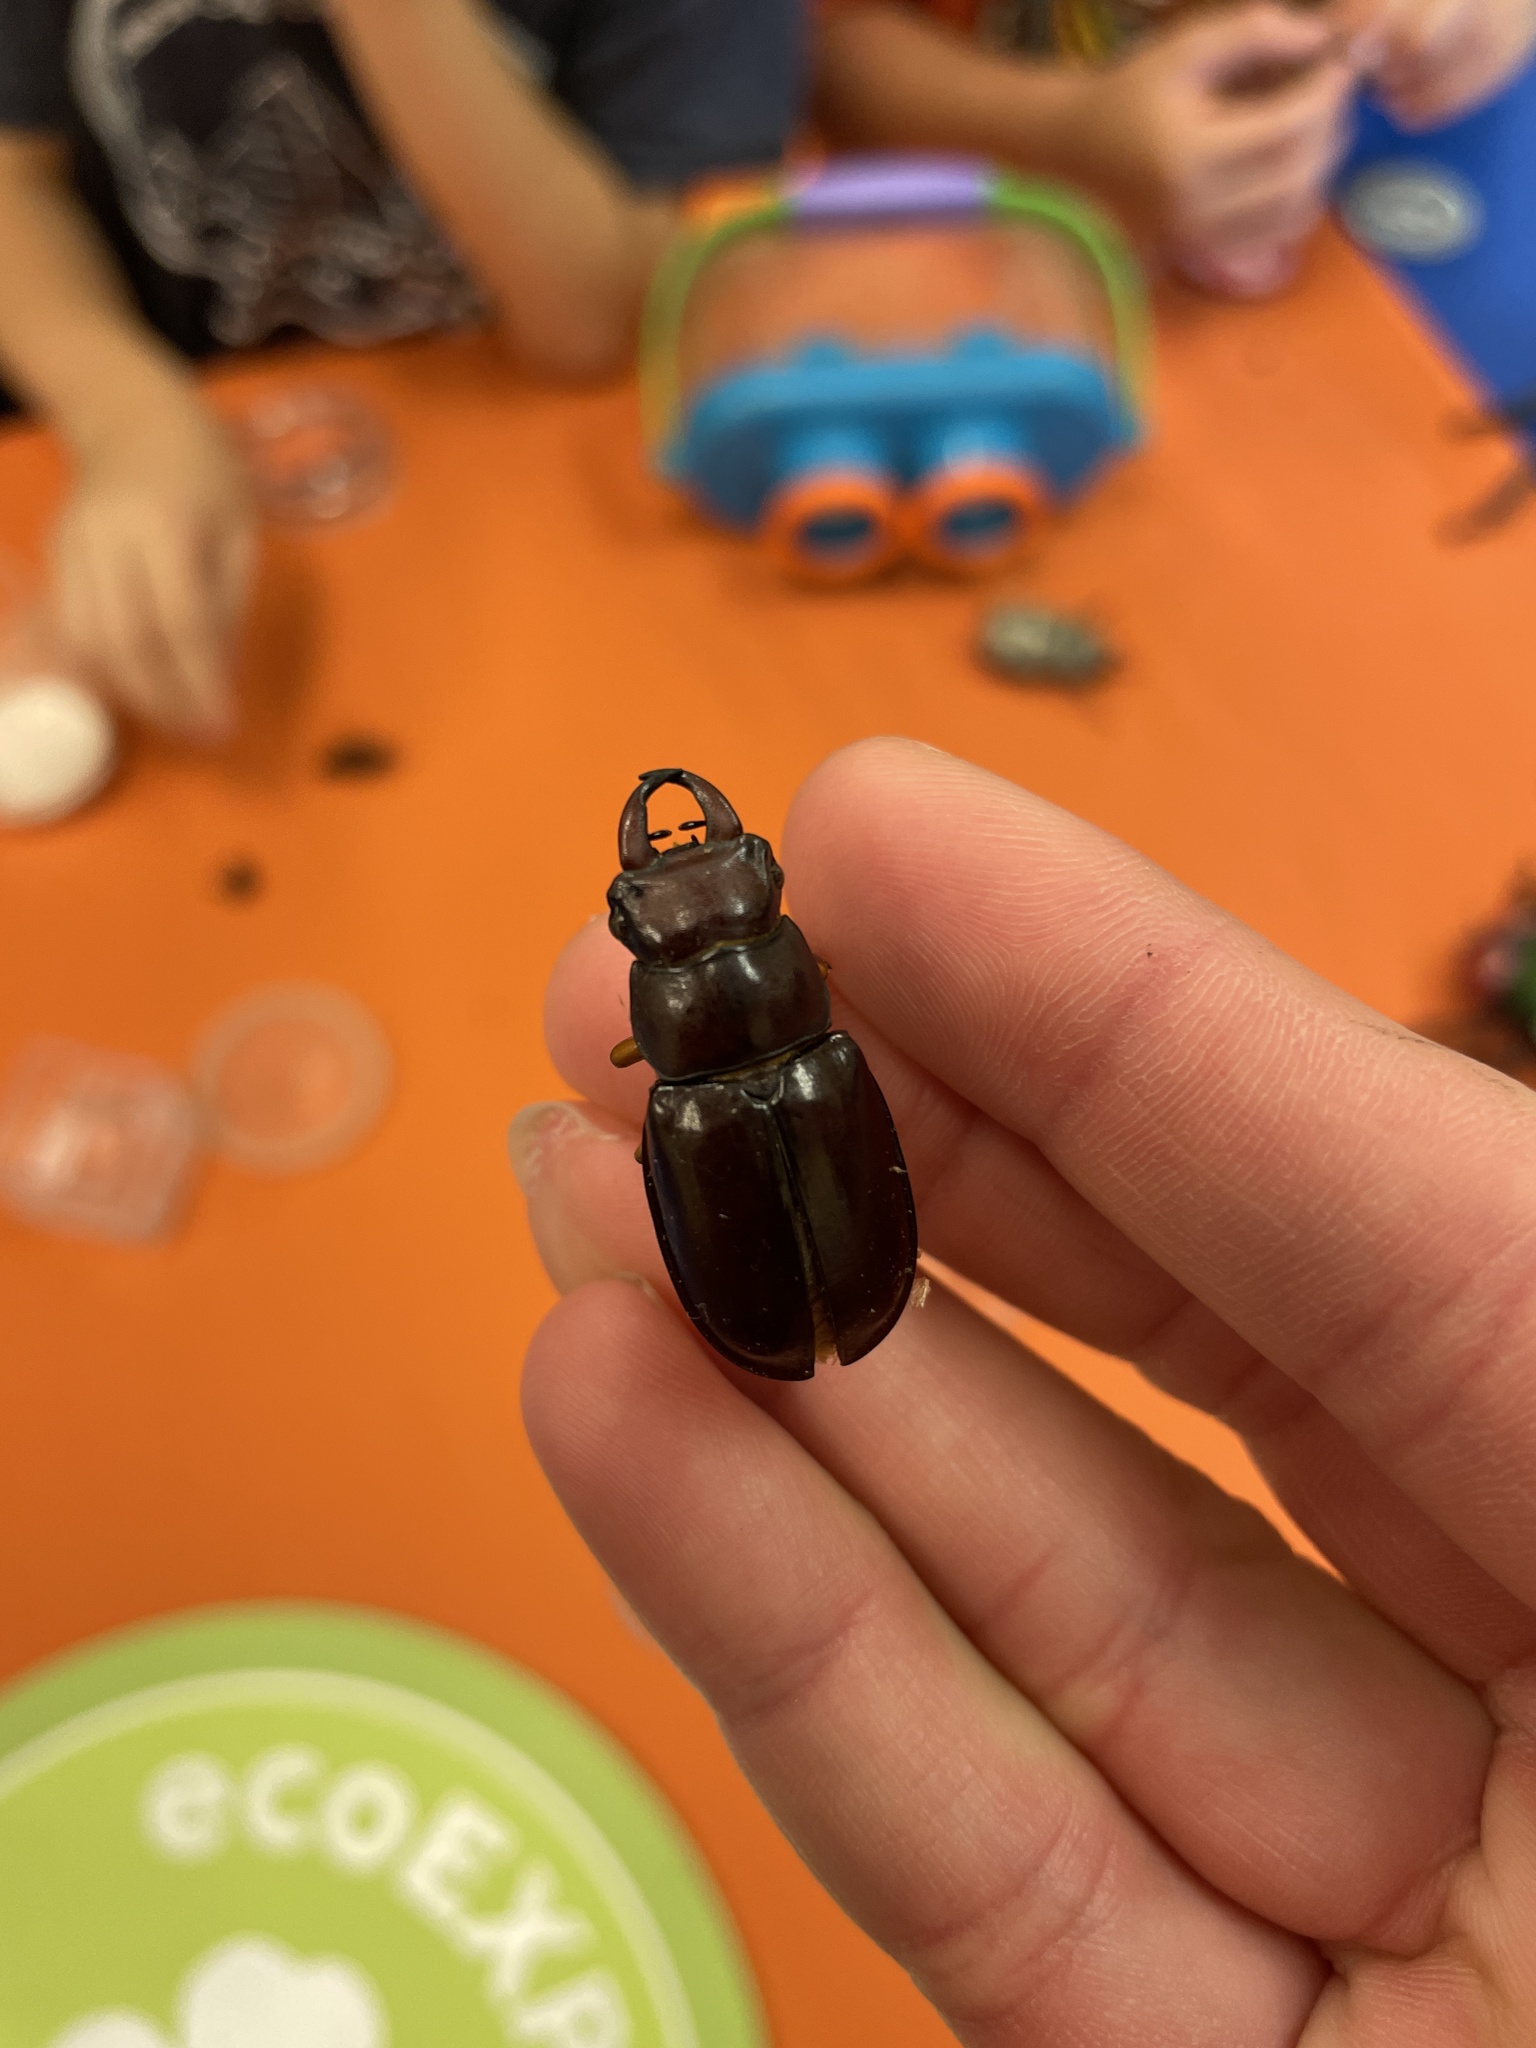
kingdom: Animalia
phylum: Arthropoda
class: Insecta
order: Coleoptera
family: Lucanidae
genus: Lucanus
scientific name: Lucanus capreolus
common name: Stag beetle
